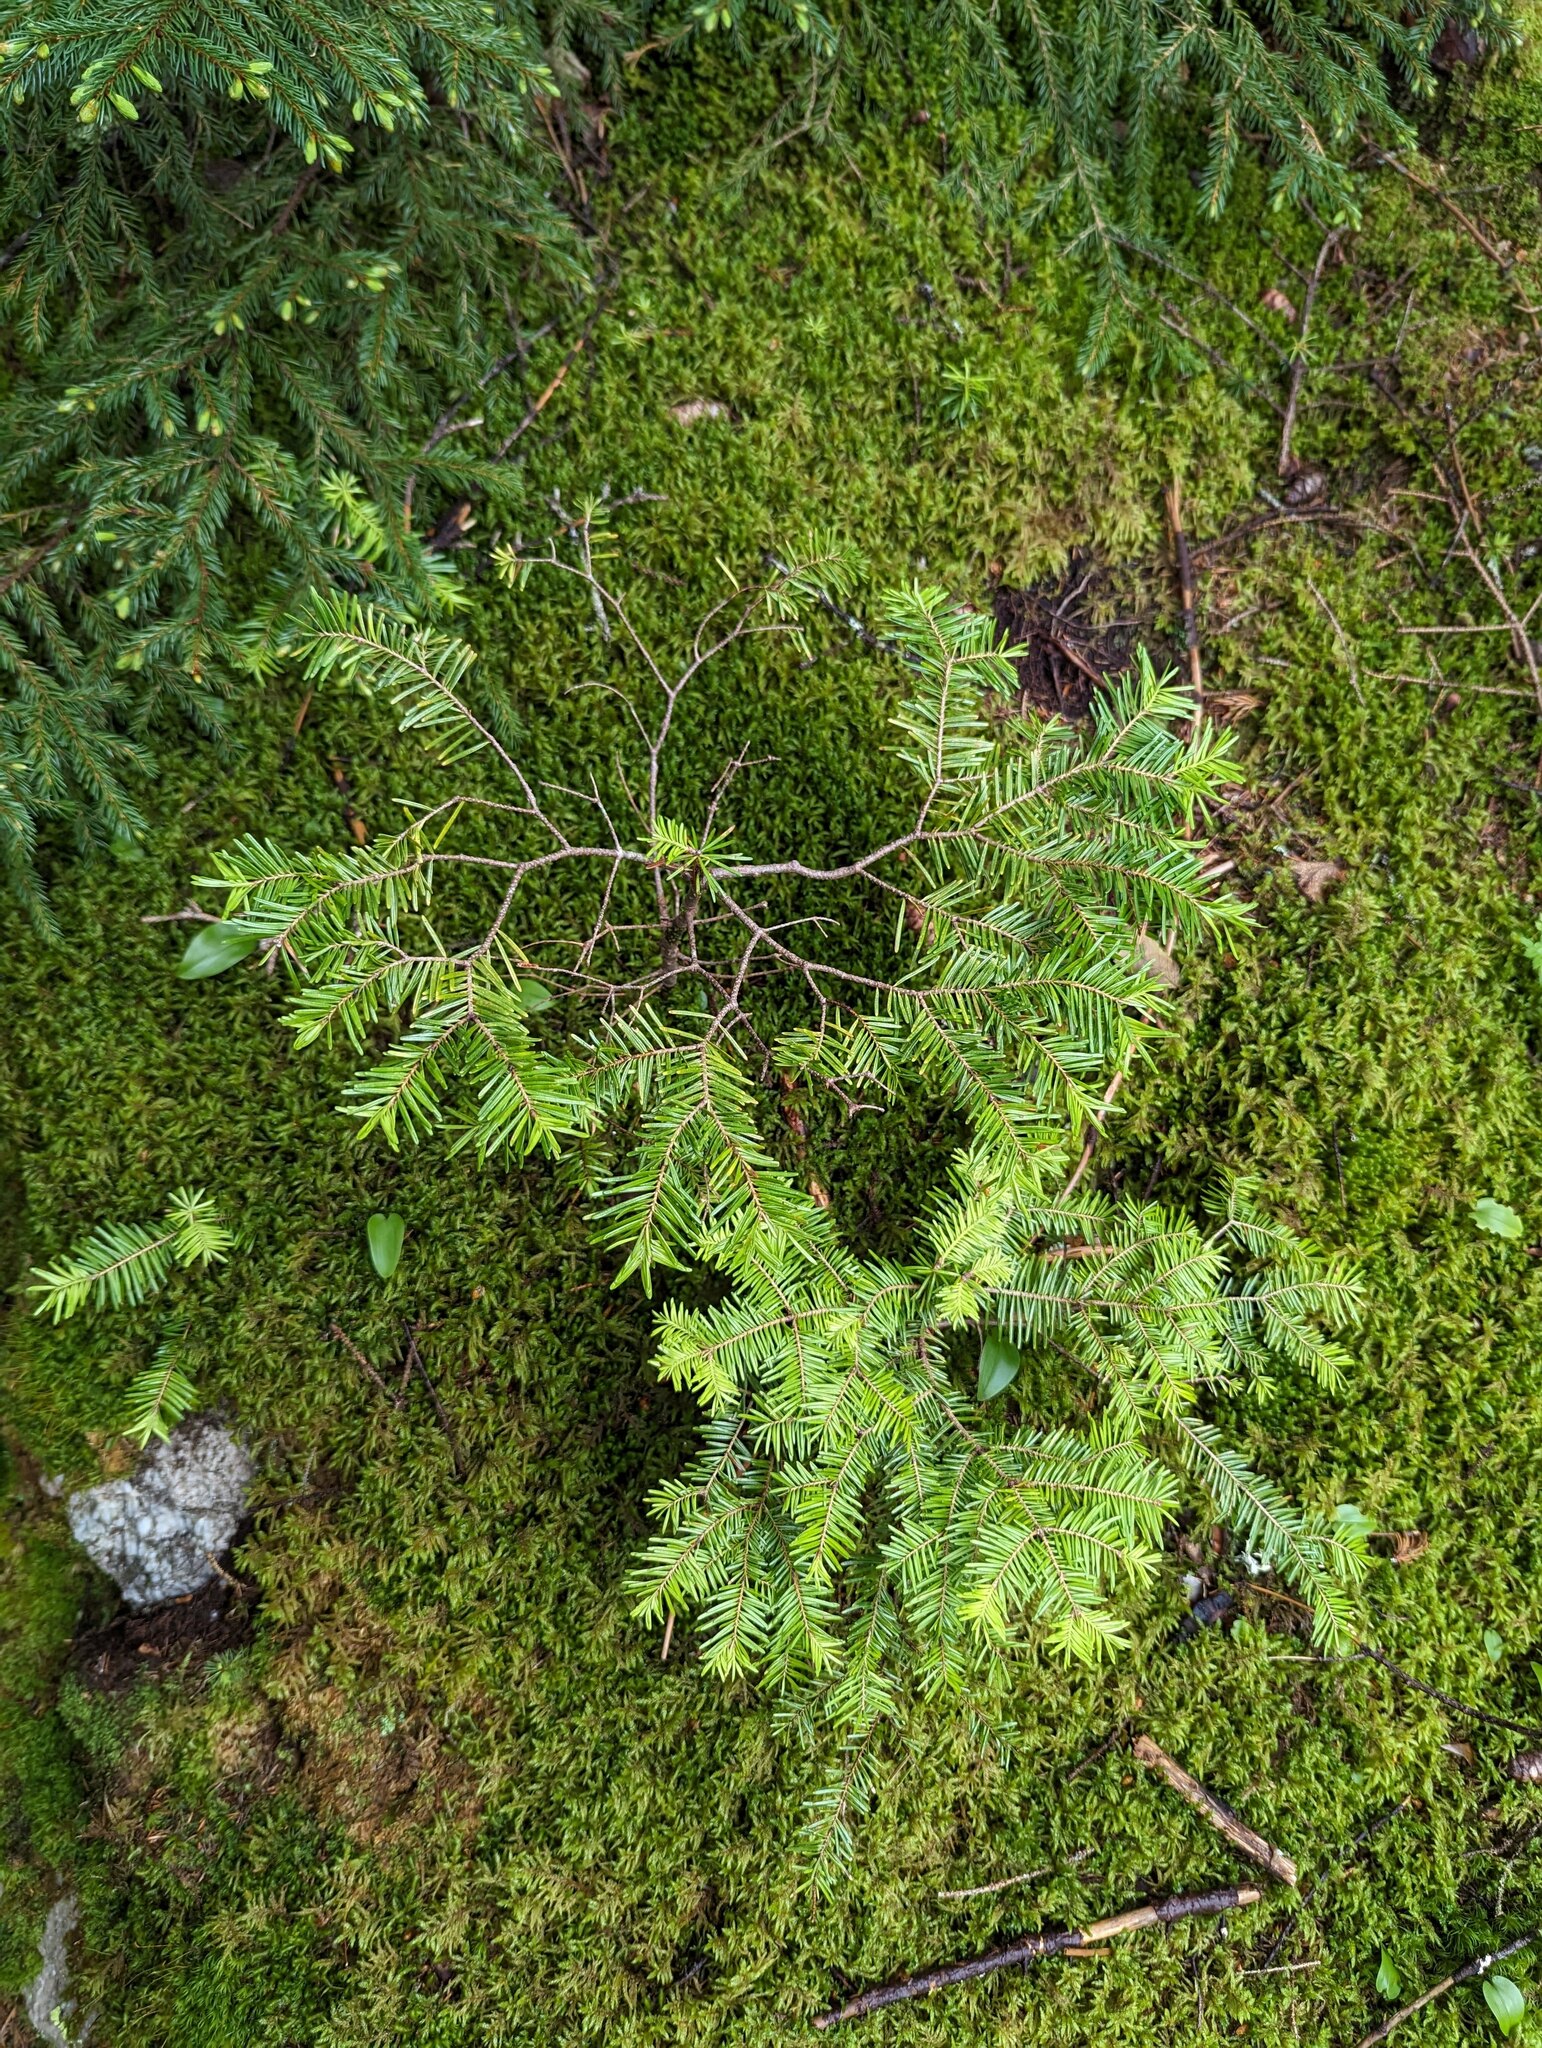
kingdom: Plantae
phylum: Tracheophyta
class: Pinopsida
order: Pinales
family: Pinaceae
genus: Abies
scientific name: Abies balsamea
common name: Balsam fir
